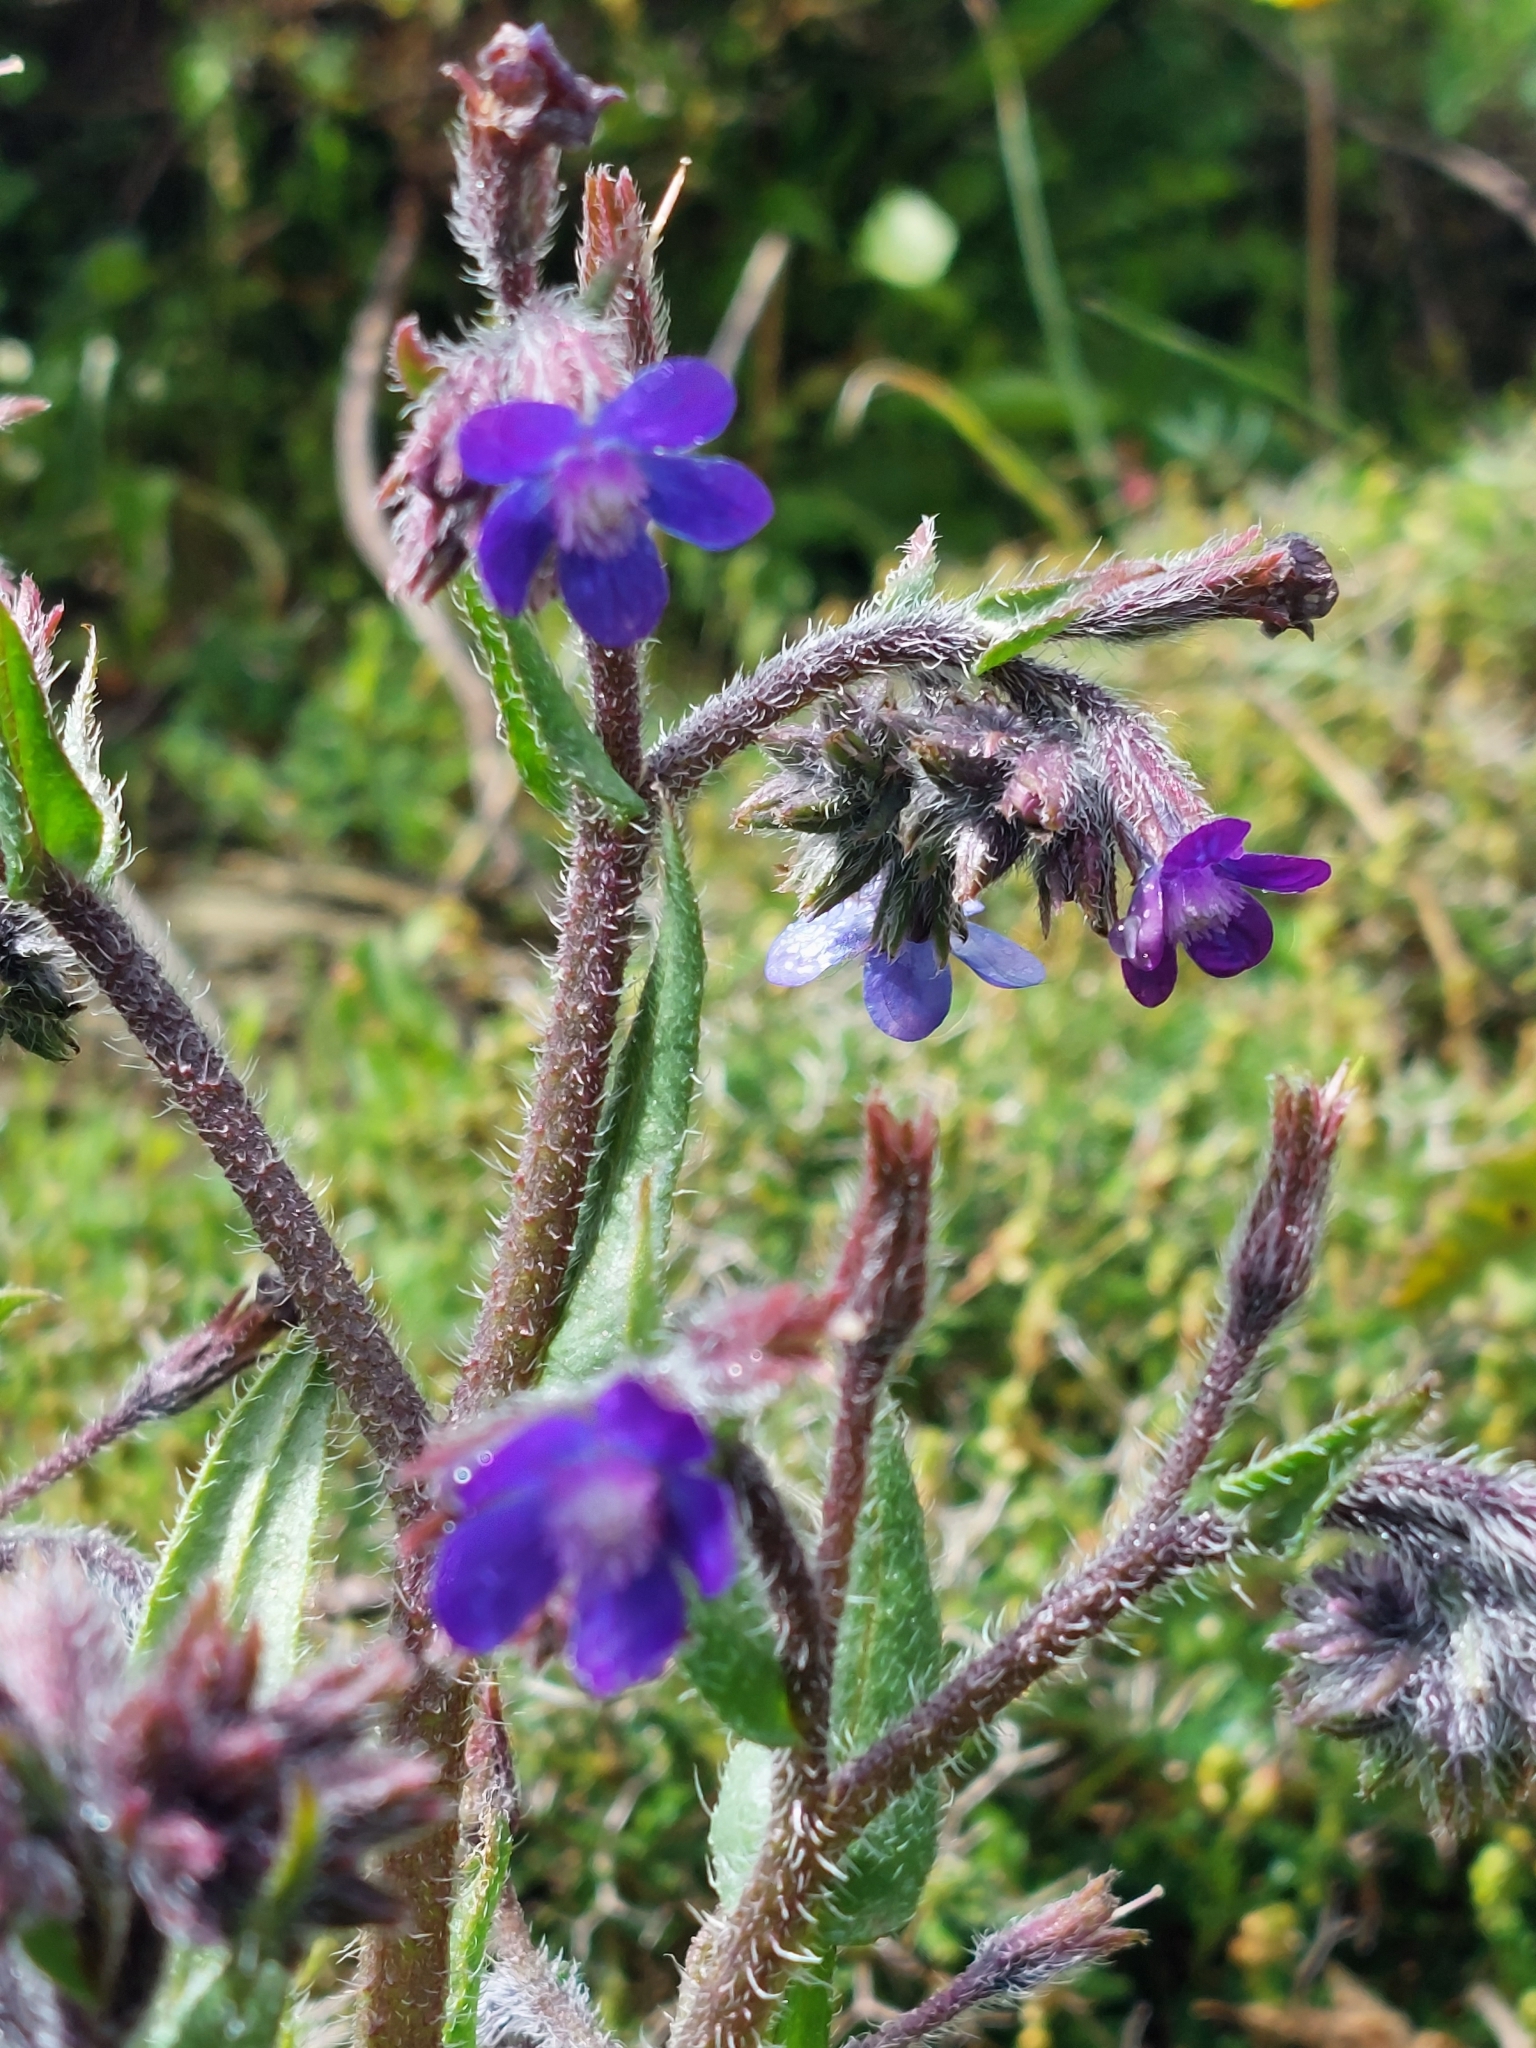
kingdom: Plantae
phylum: Tracheophyta
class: Magnoliopsida
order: Boraginales
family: Boraginaceae
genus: Anchusa
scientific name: Anchusa azurea
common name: Garden anchusa
